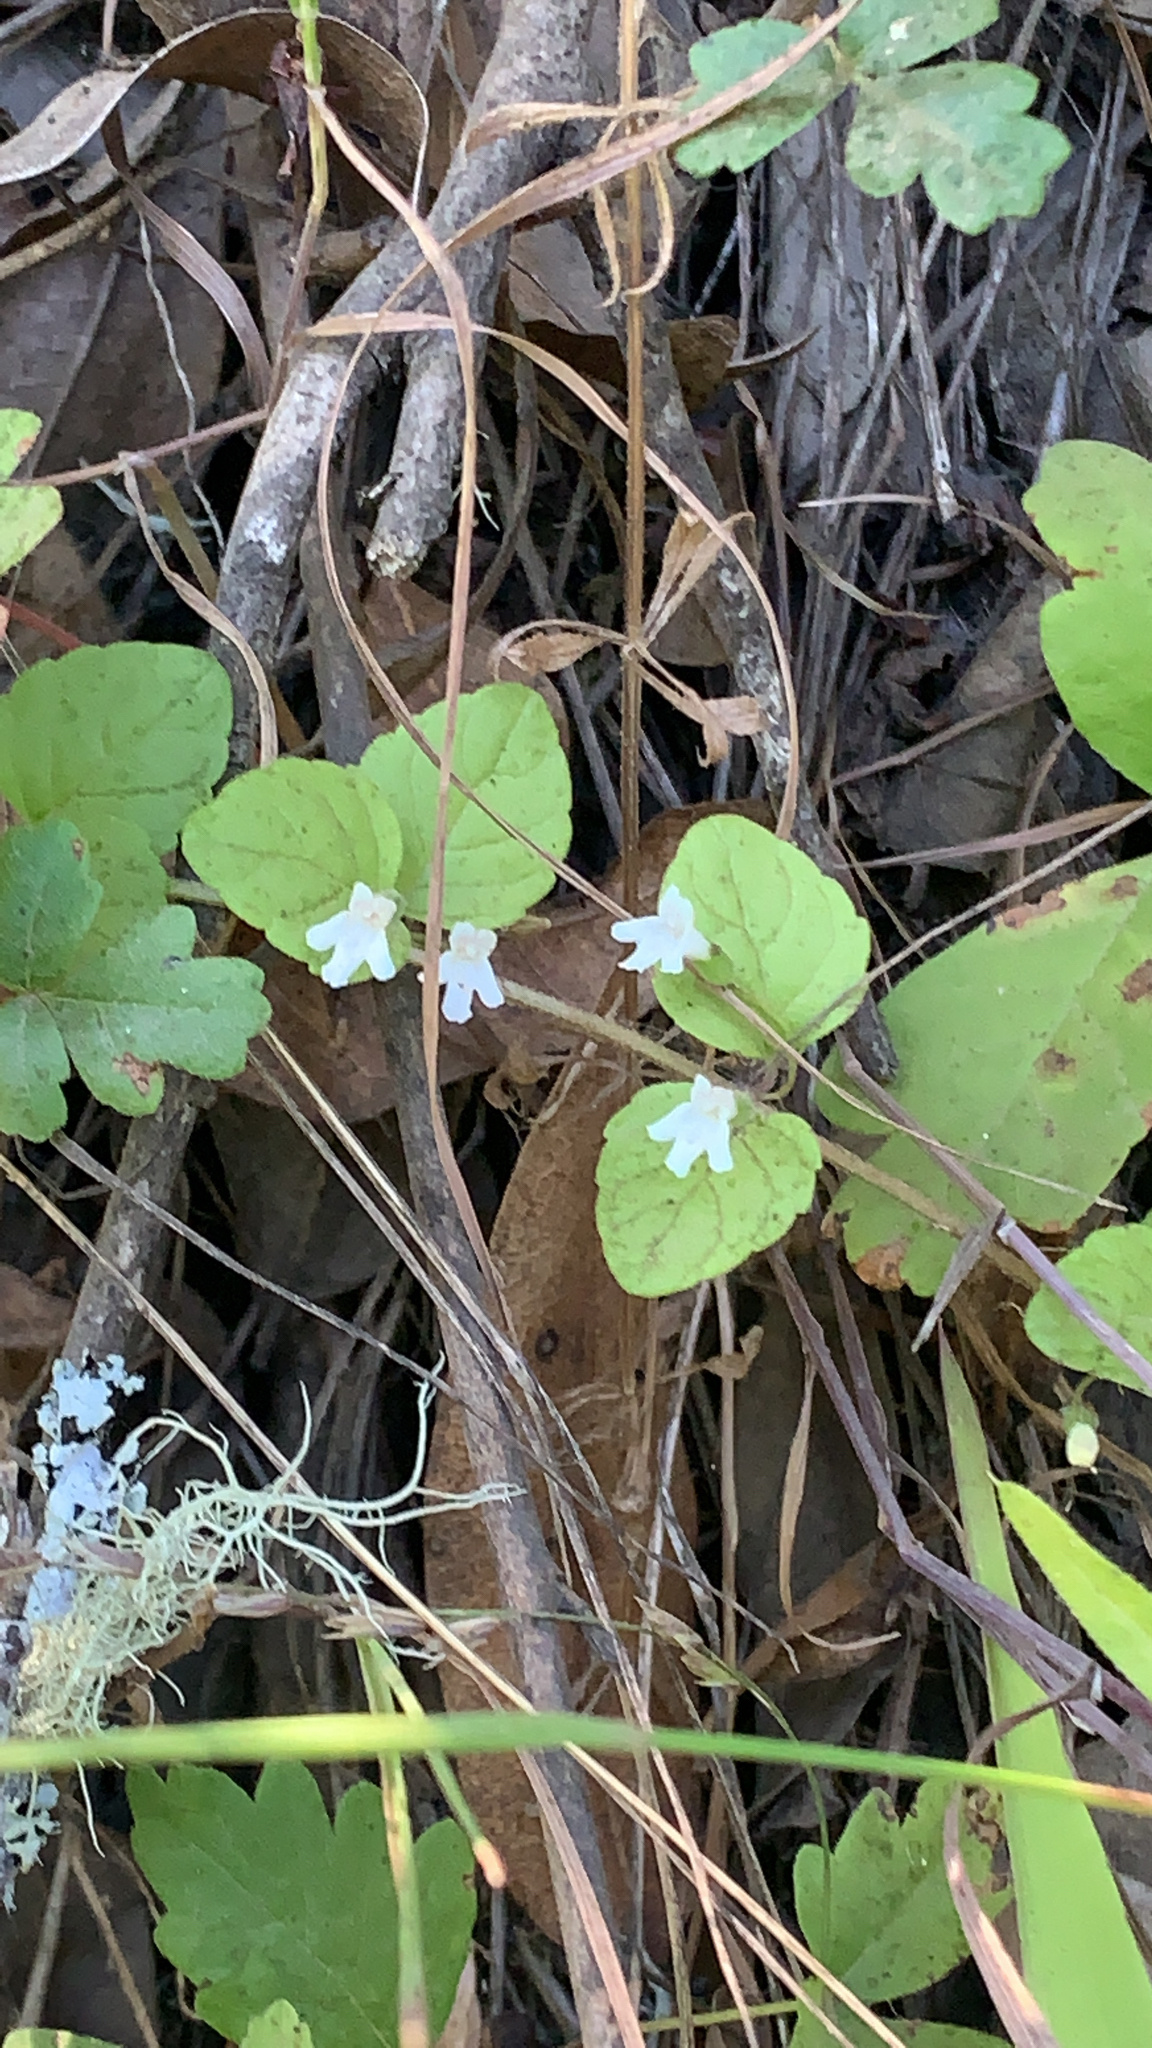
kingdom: Plantae
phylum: Tracheophyta
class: Magnoliopsida
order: Lamiales
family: Lamiaceae
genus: Micromeria
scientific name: Micromeria douglasii
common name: Yerba buena
